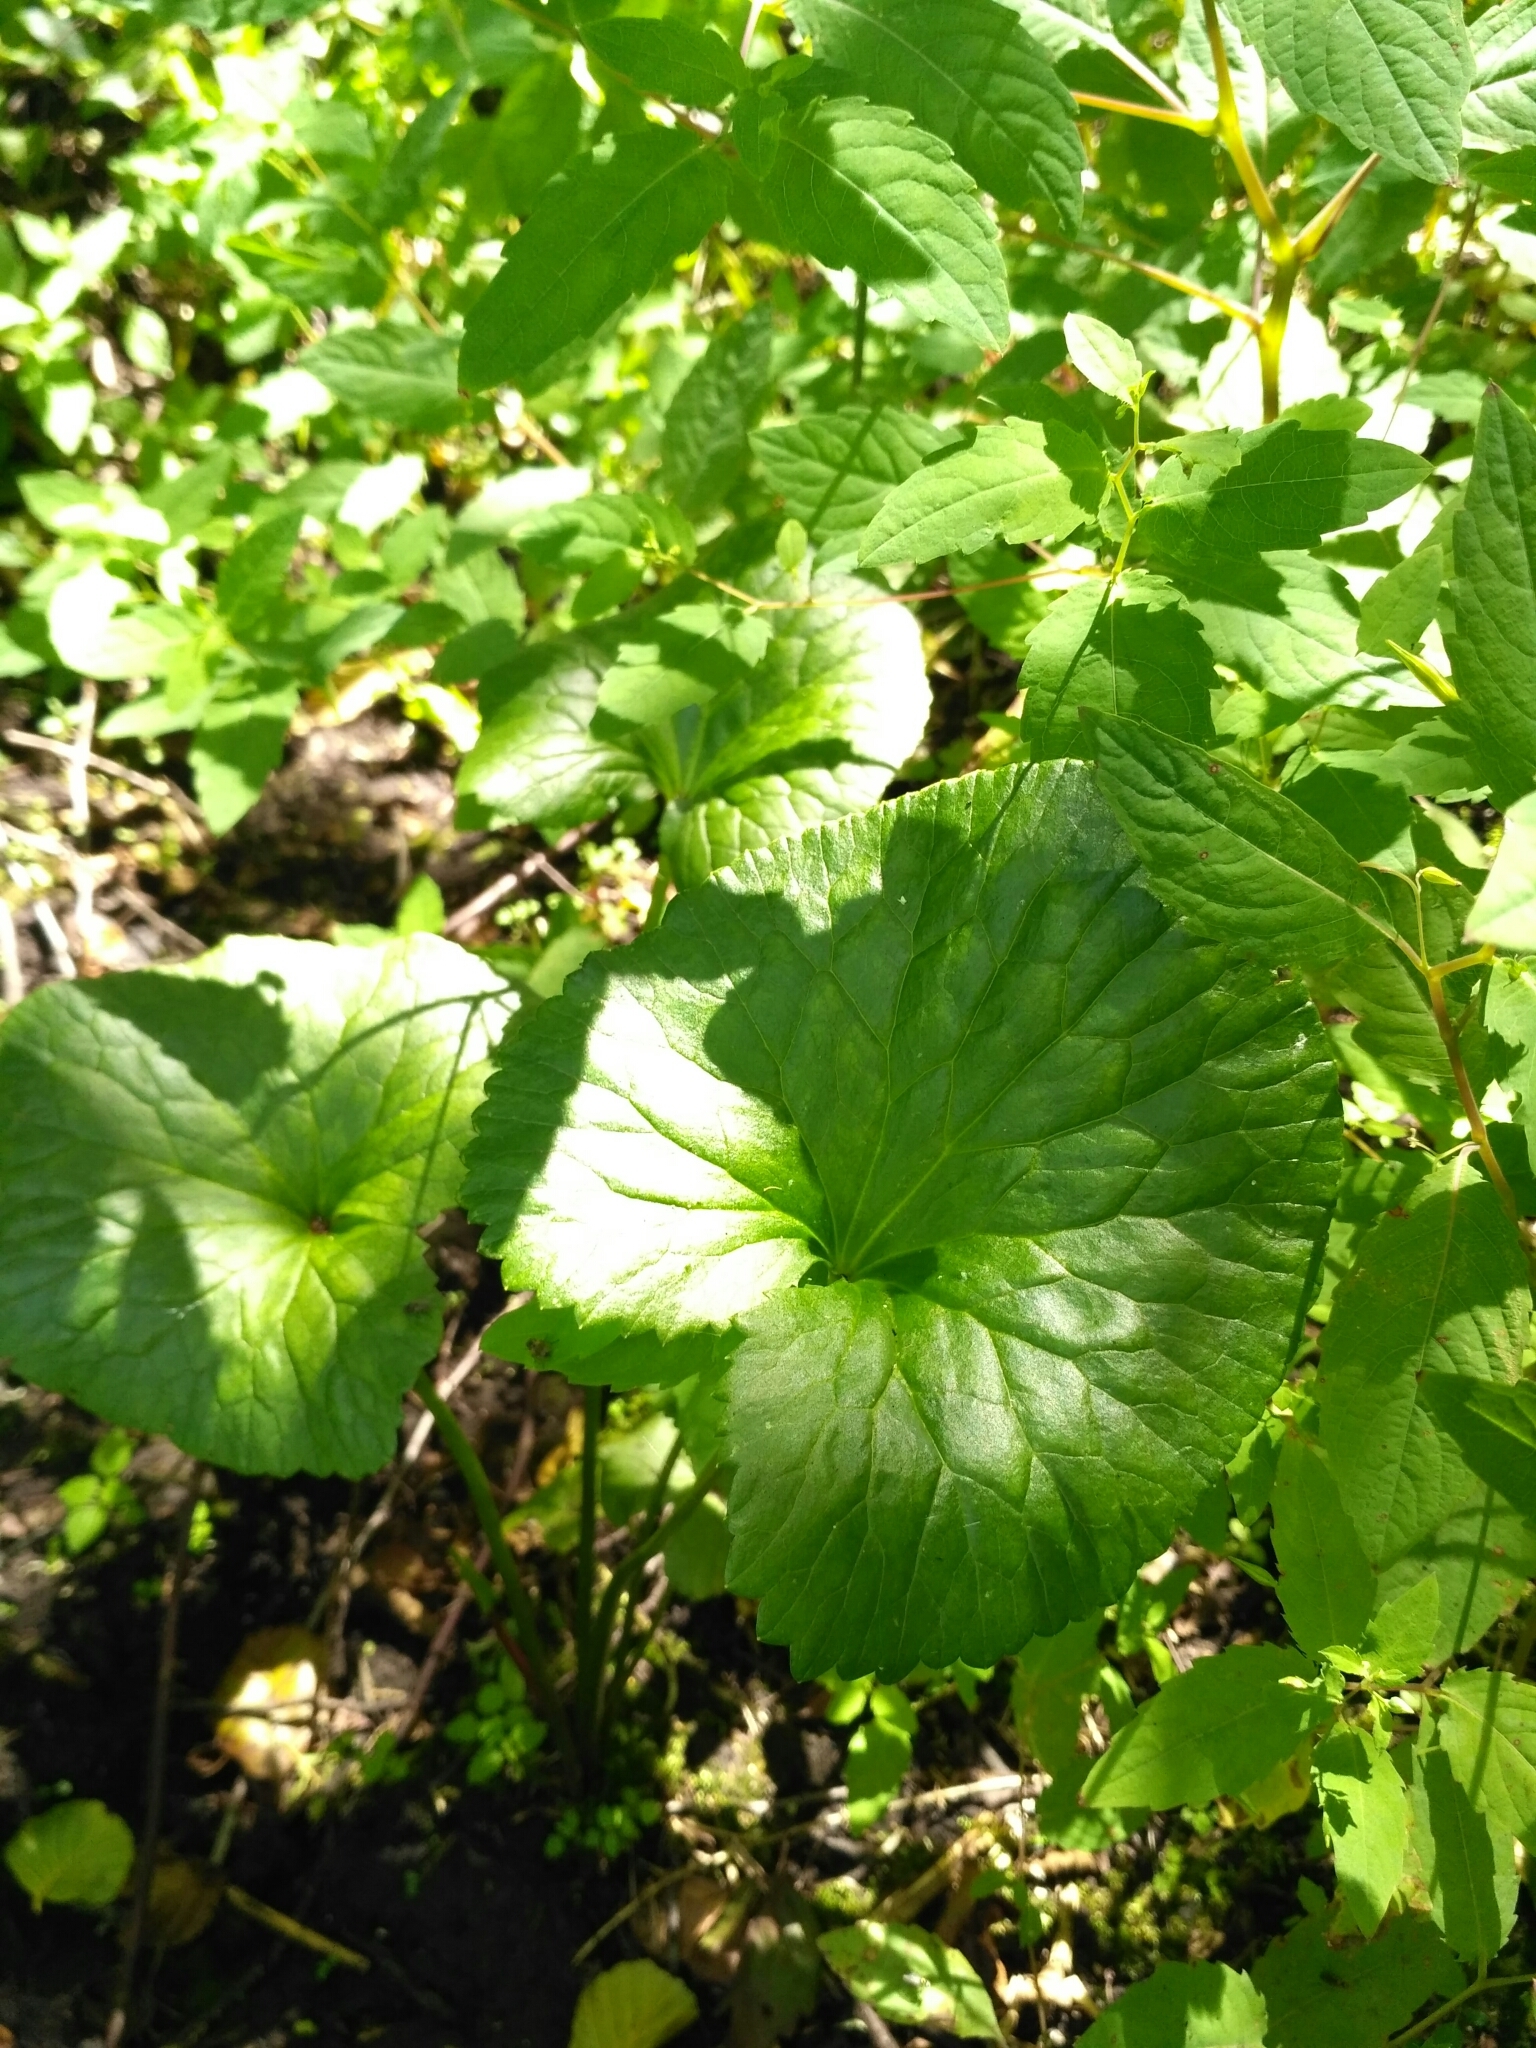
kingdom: Plantae
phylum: Tracheophyta
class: Magnoliopsida
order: Ranunculales
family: Ranunculaceae
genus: Caltha
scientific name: Caltha palustris
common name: Marsh marigold
